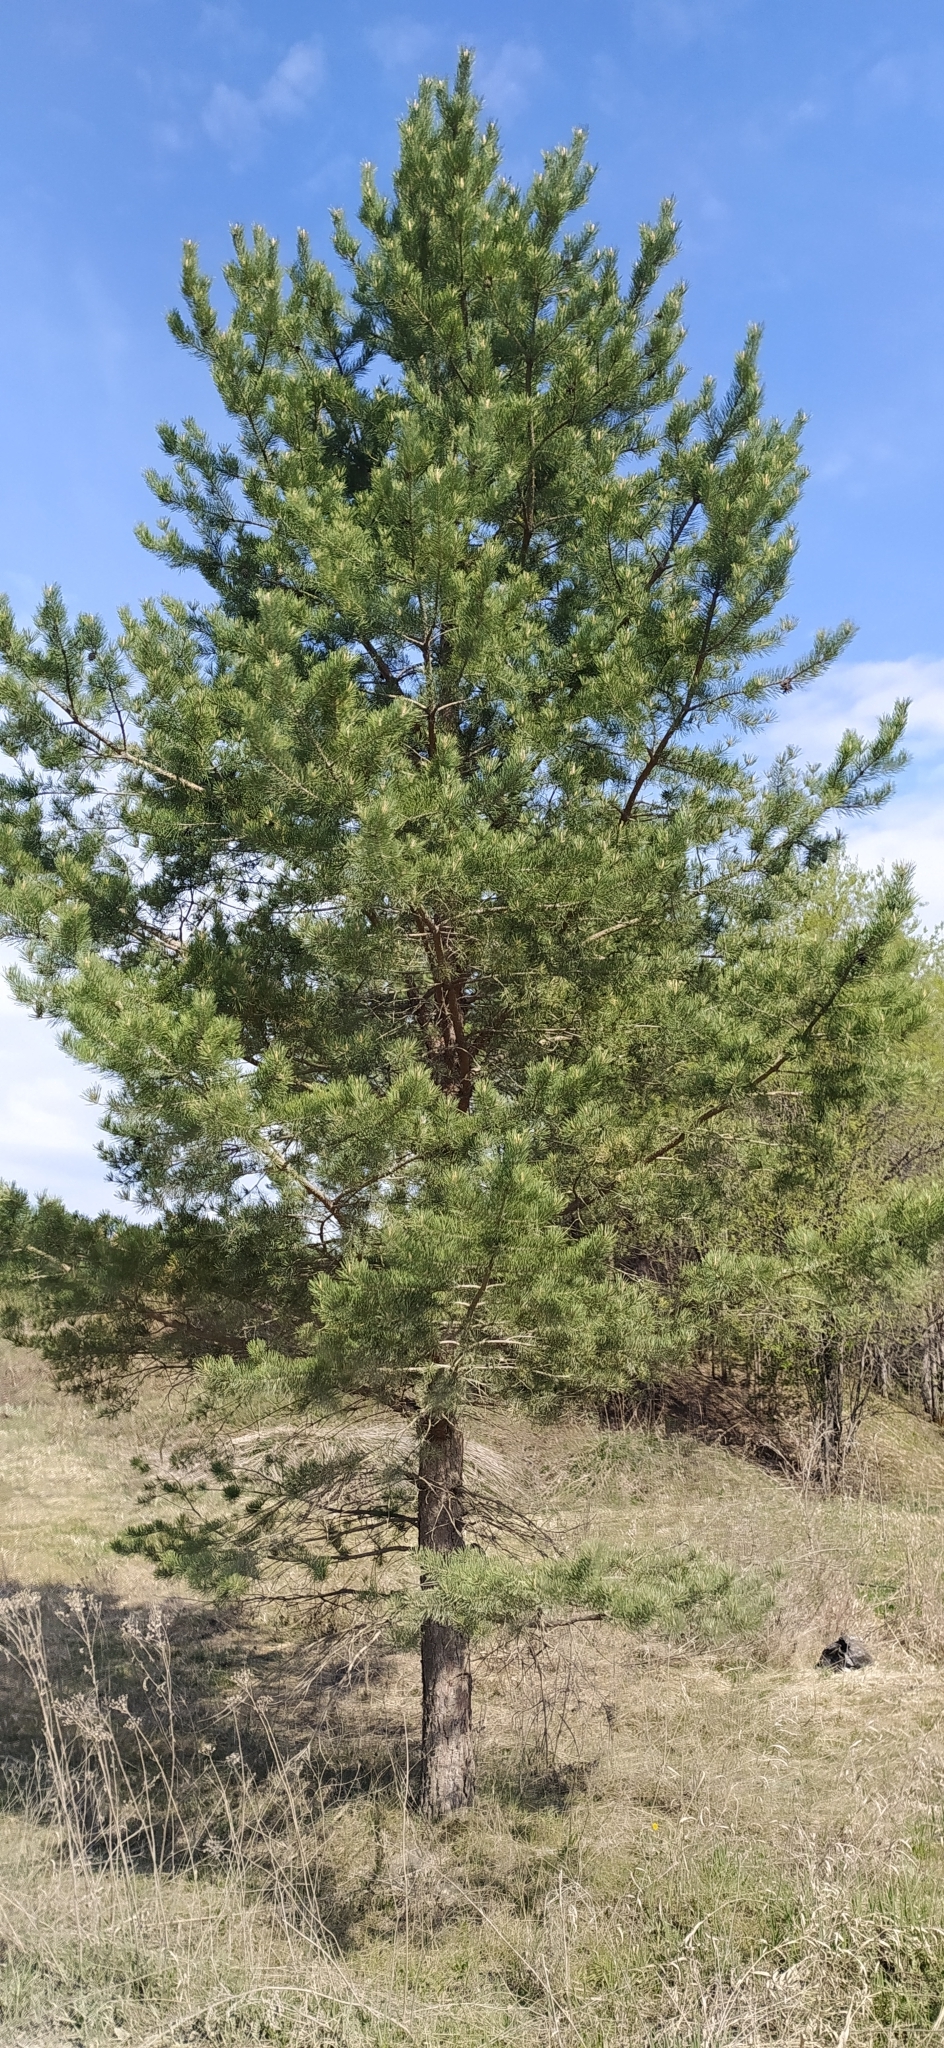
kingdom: Plantae
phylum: Tracheophyta
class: Pinopsida
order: Pinales
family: Pinaceae
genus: Pinus
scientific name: Pinus sylvestris
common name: Scots pine
